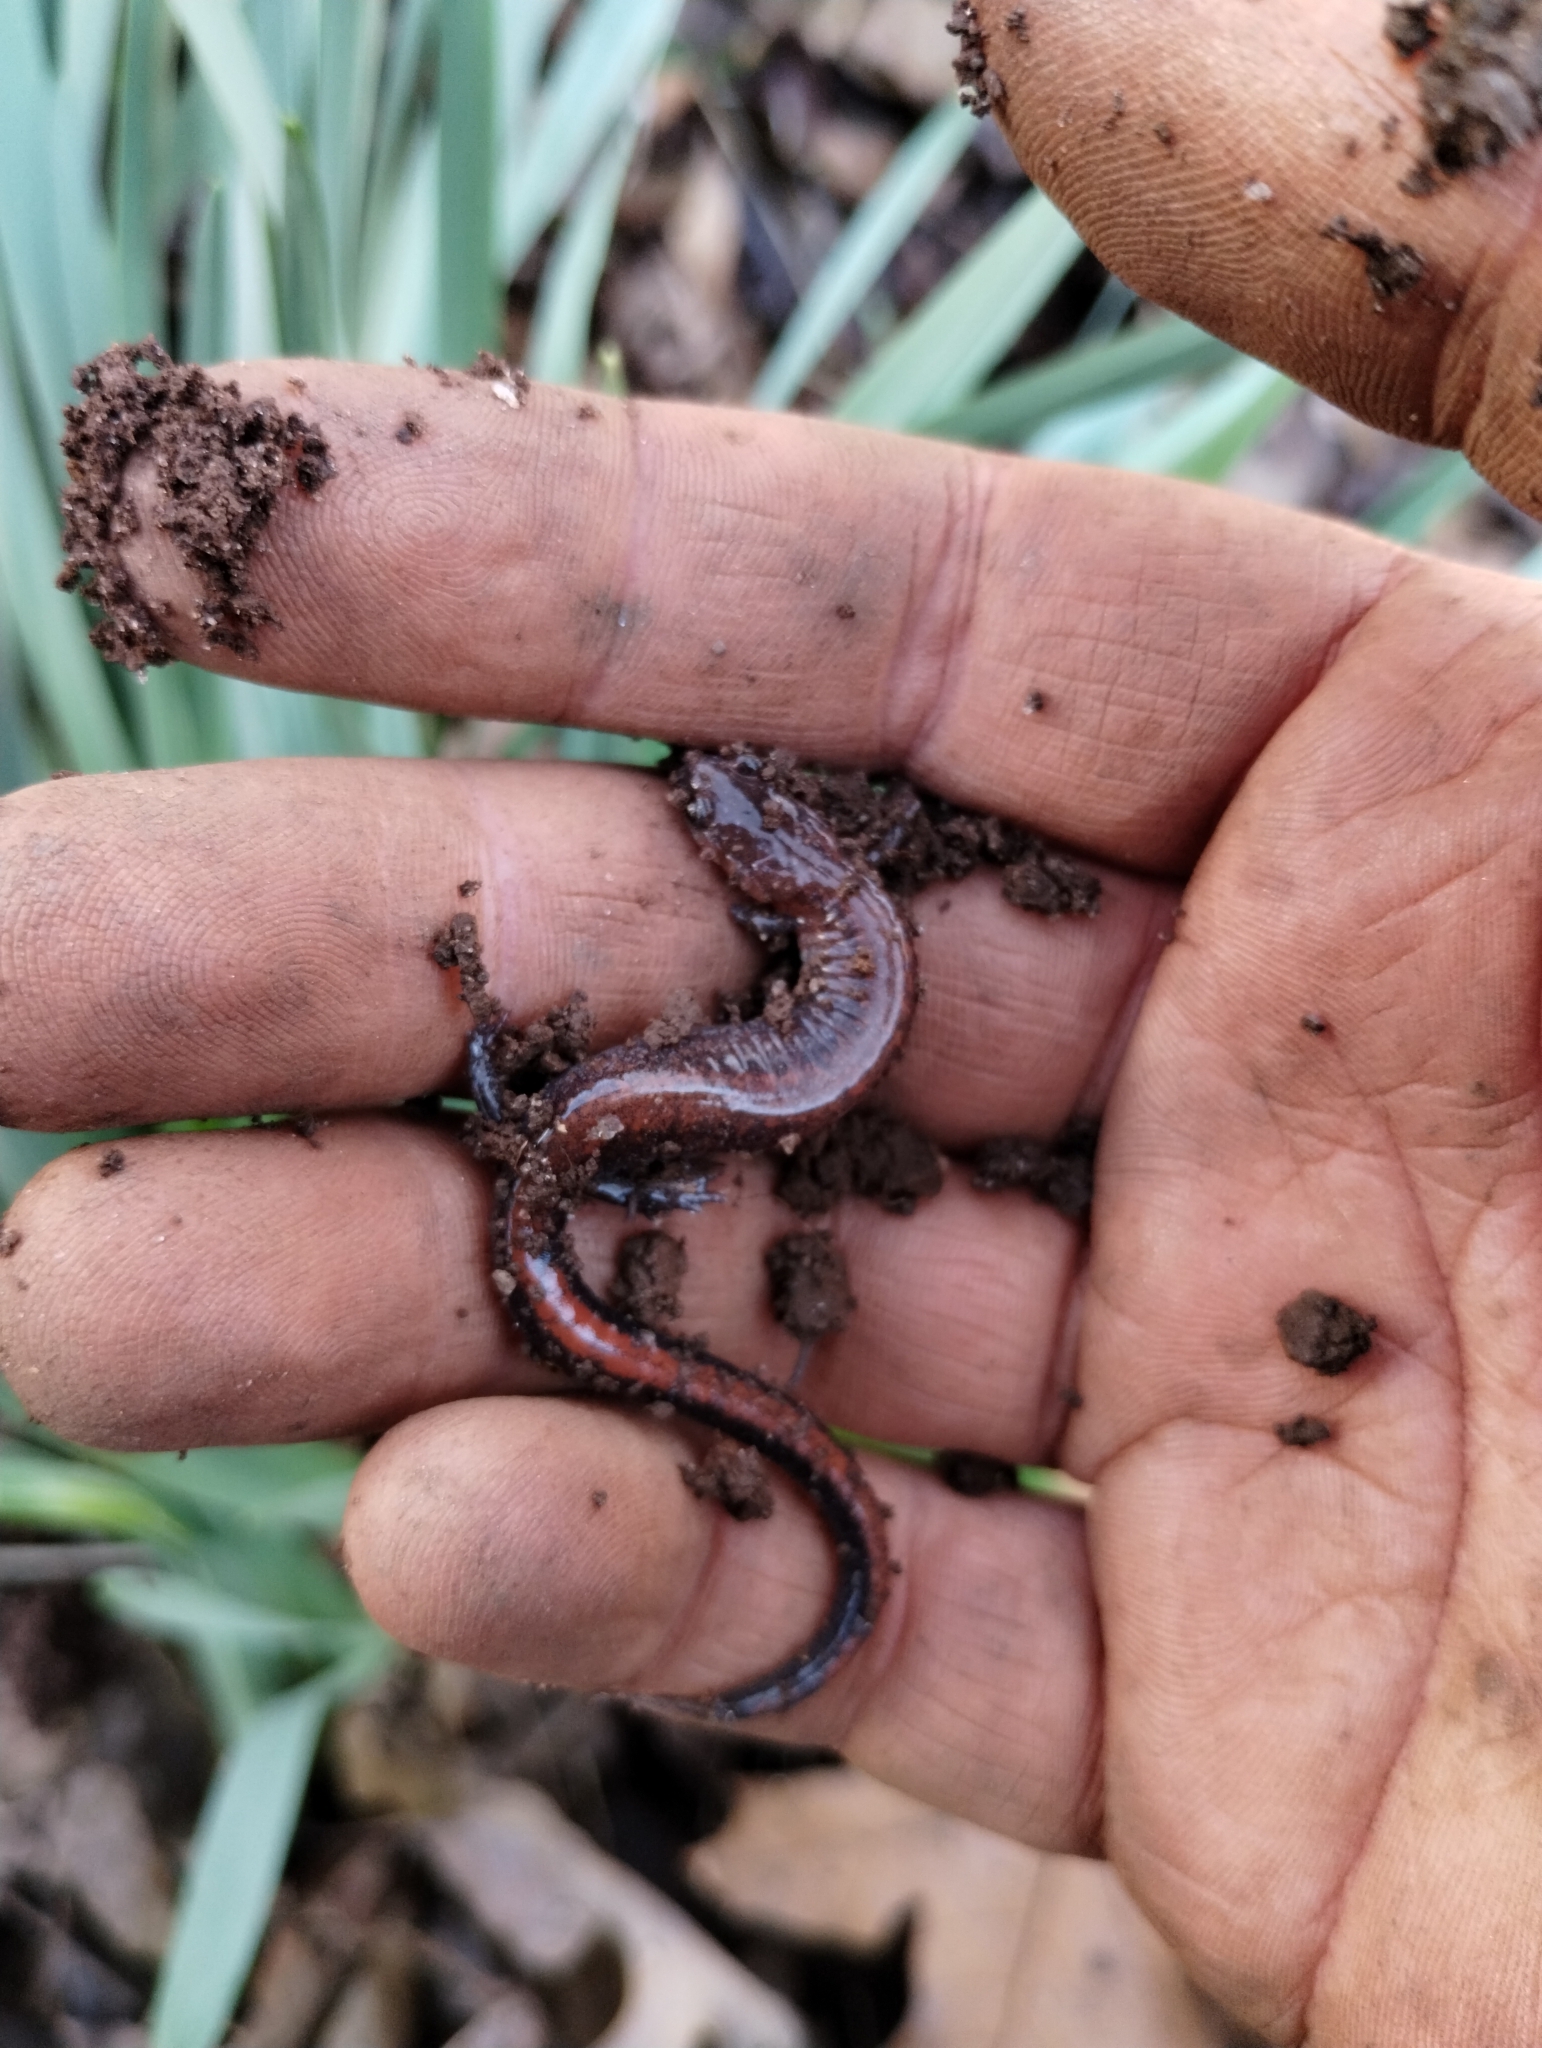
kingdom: Animalia
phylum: Chordata
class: Amphibia
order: Caudata
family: Plethodontidae
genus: Plethodon
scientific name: Plethodon serratus
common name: Southern red-backed salamander
